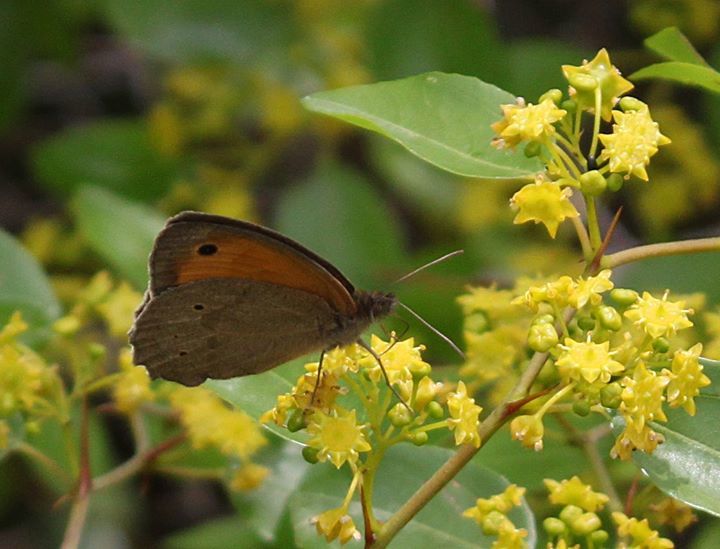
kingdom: Animalia
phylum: Arthropoda
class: Insecta
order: Lepidoptera
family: Nymphalidae
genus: Maniola
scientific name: Maniola jurtina
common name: Meadow brown
